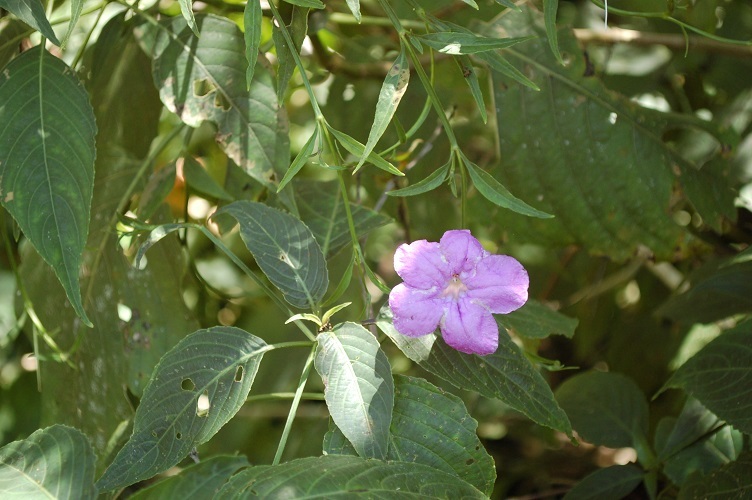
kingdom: Plantae
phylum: Tracheophyta
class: Magnoliopsida
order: Lamiales
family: Acanthaceae
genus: Ruellia
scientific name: Ruellia breedlovei
